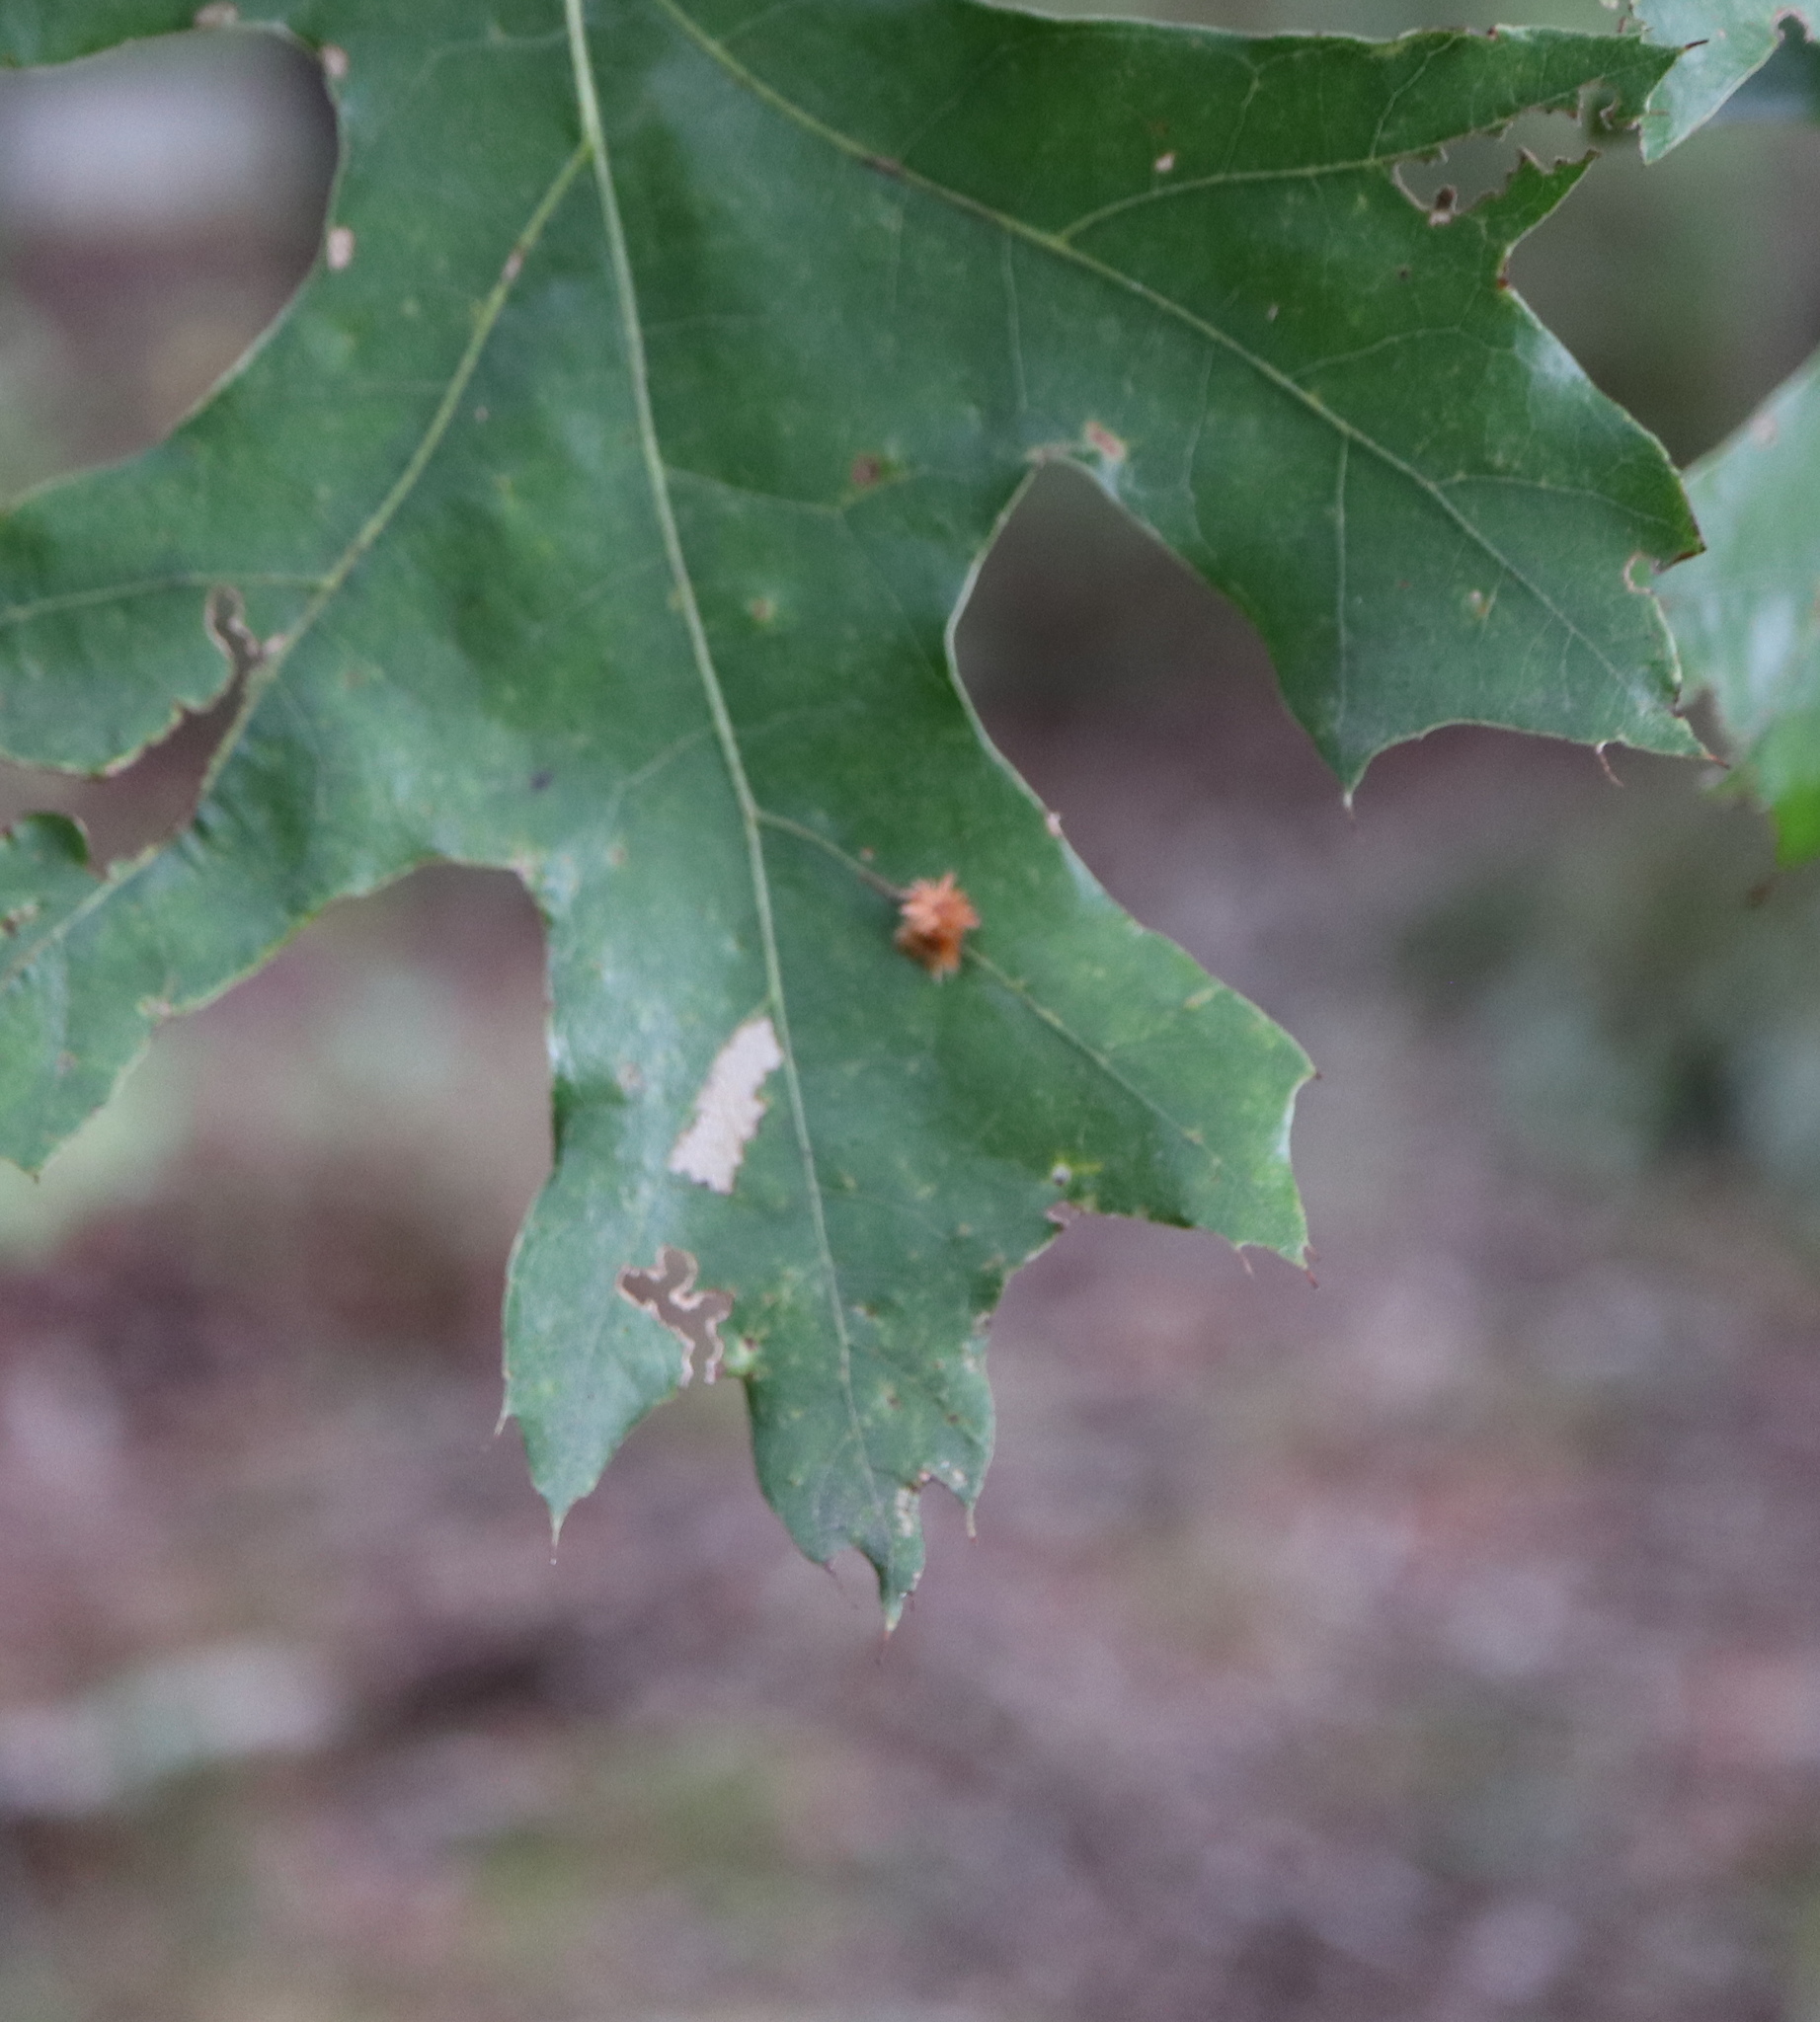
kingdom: Animalia
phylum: Arthropoda
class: Insecta
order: Hymenoptera
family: Cynipidae
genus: Callirhytis
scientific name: Callirhytis
